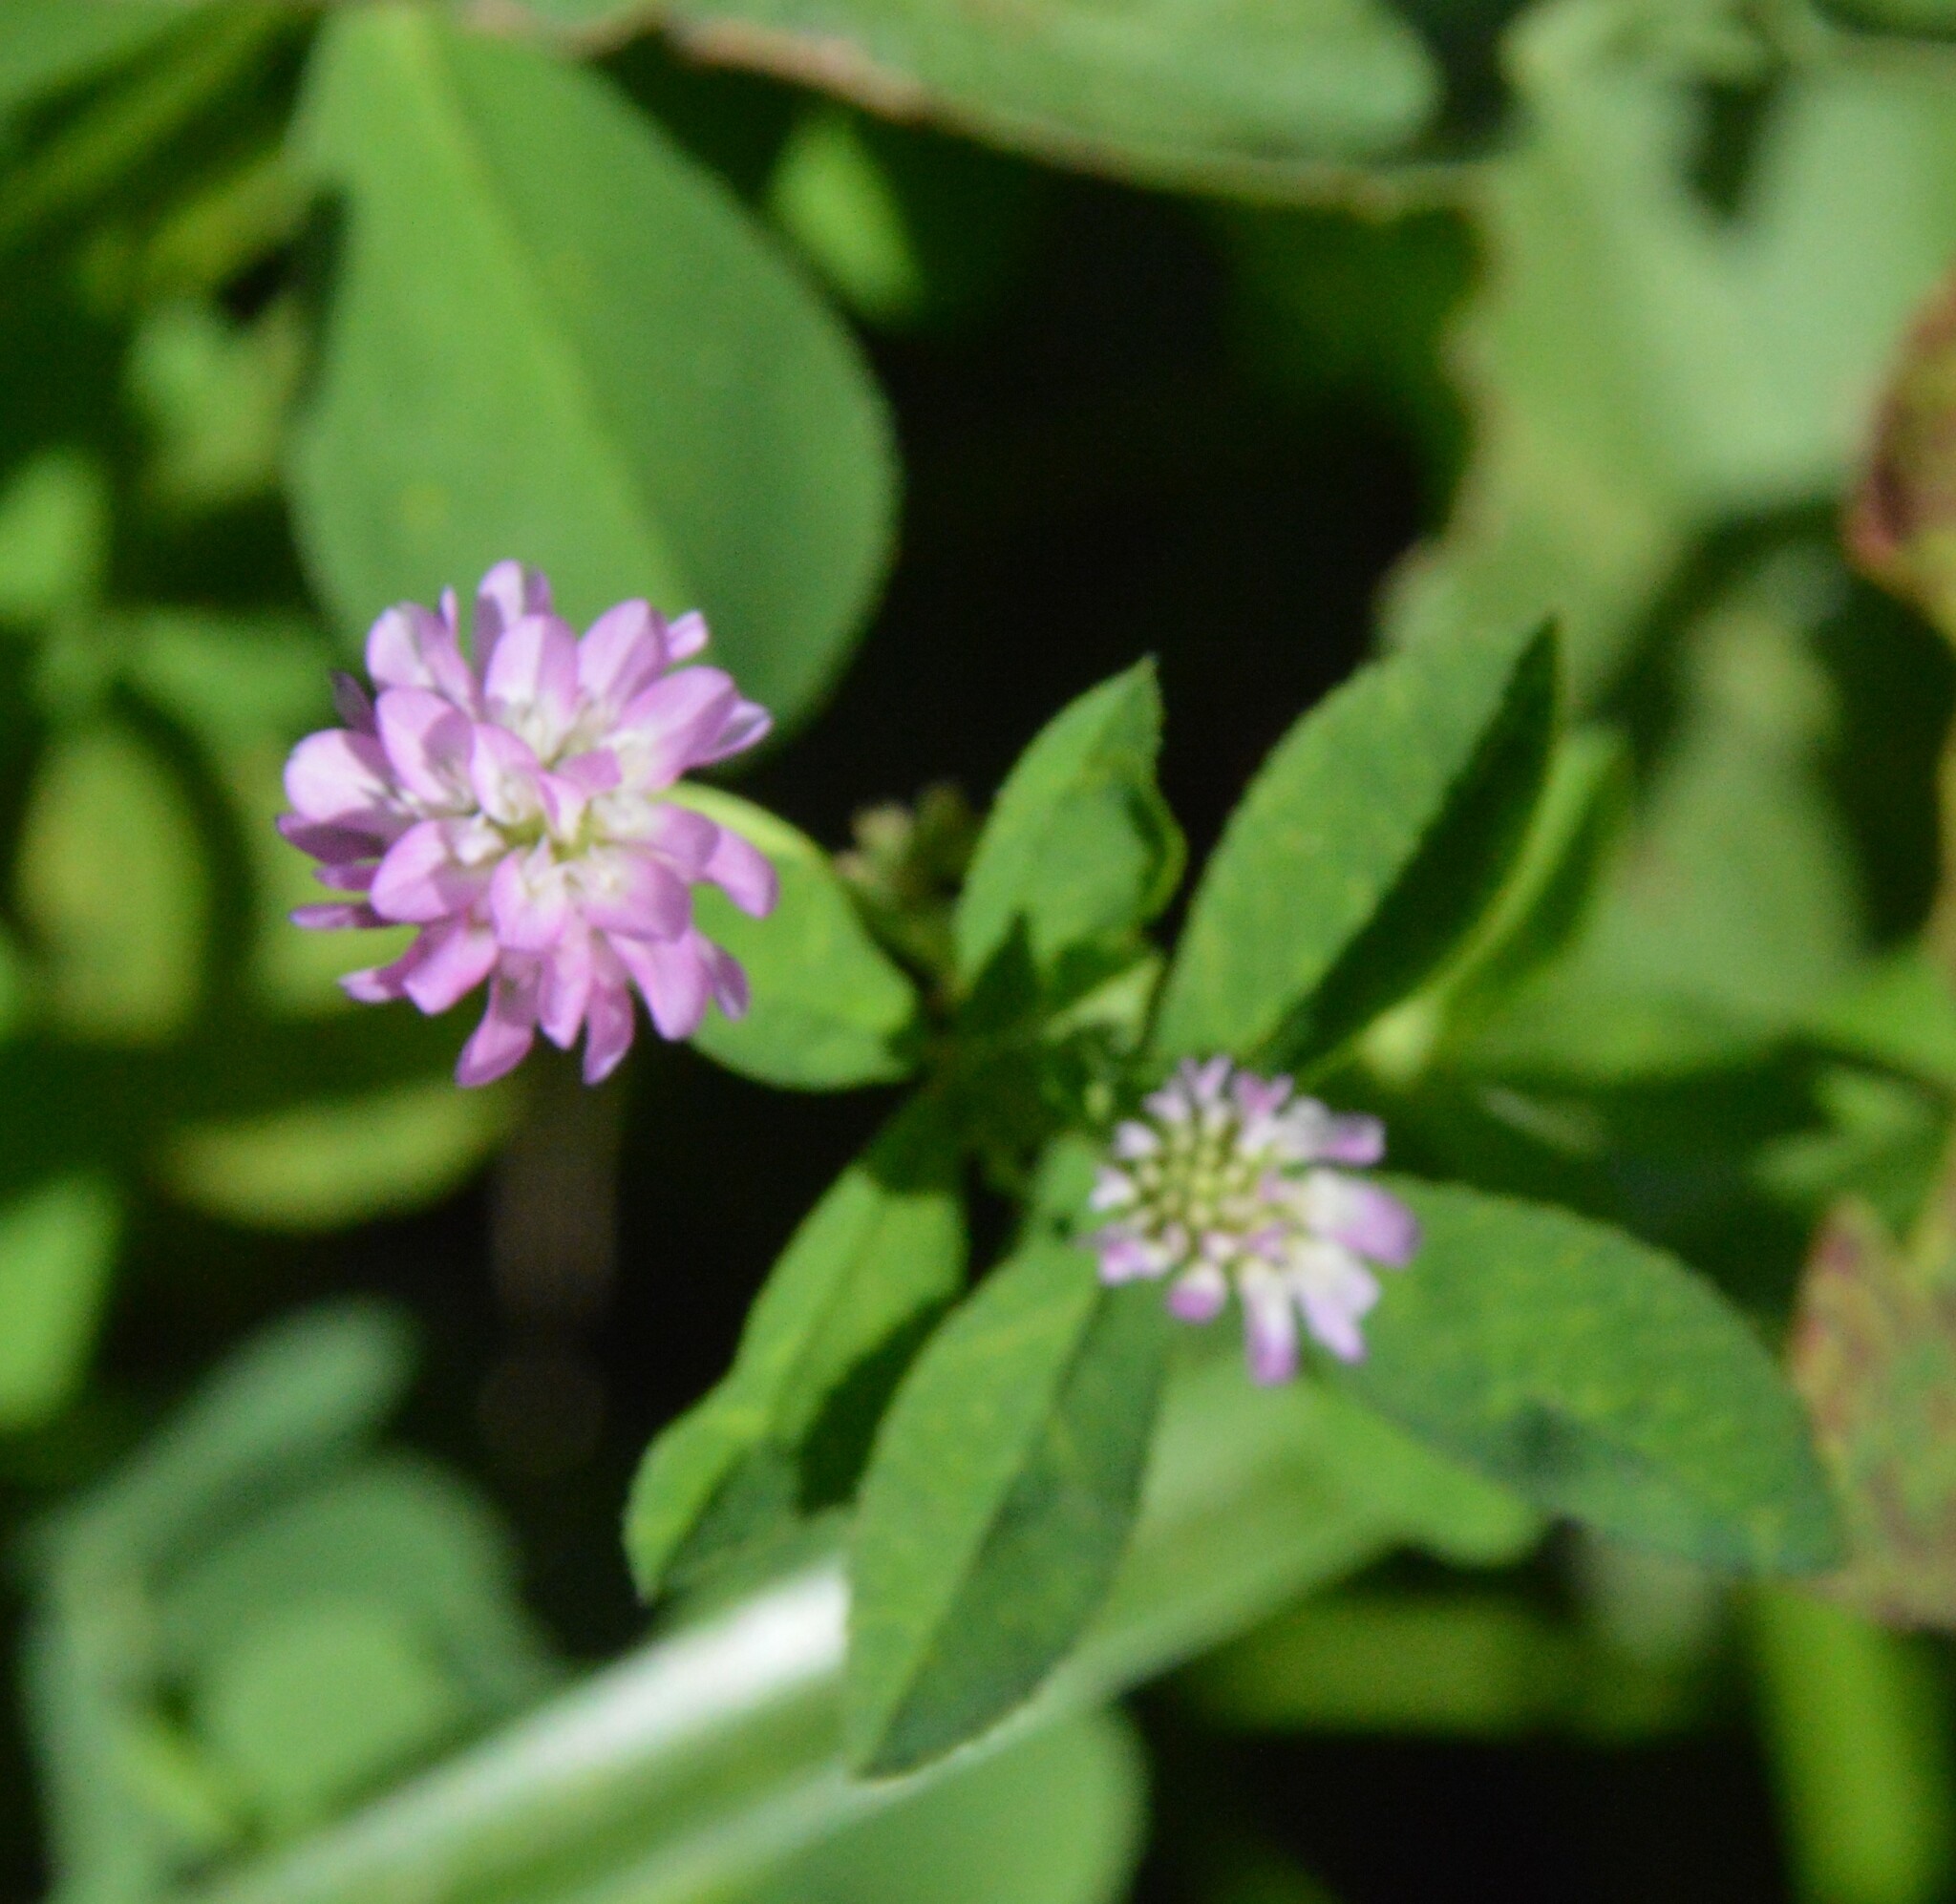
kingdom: Plantae
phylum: Tracheophyta
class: Magnoliopsida
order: Fabales
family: Fabaceae
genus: Trifolium
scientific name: Trifolium resupinatum
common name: Reversed clover
